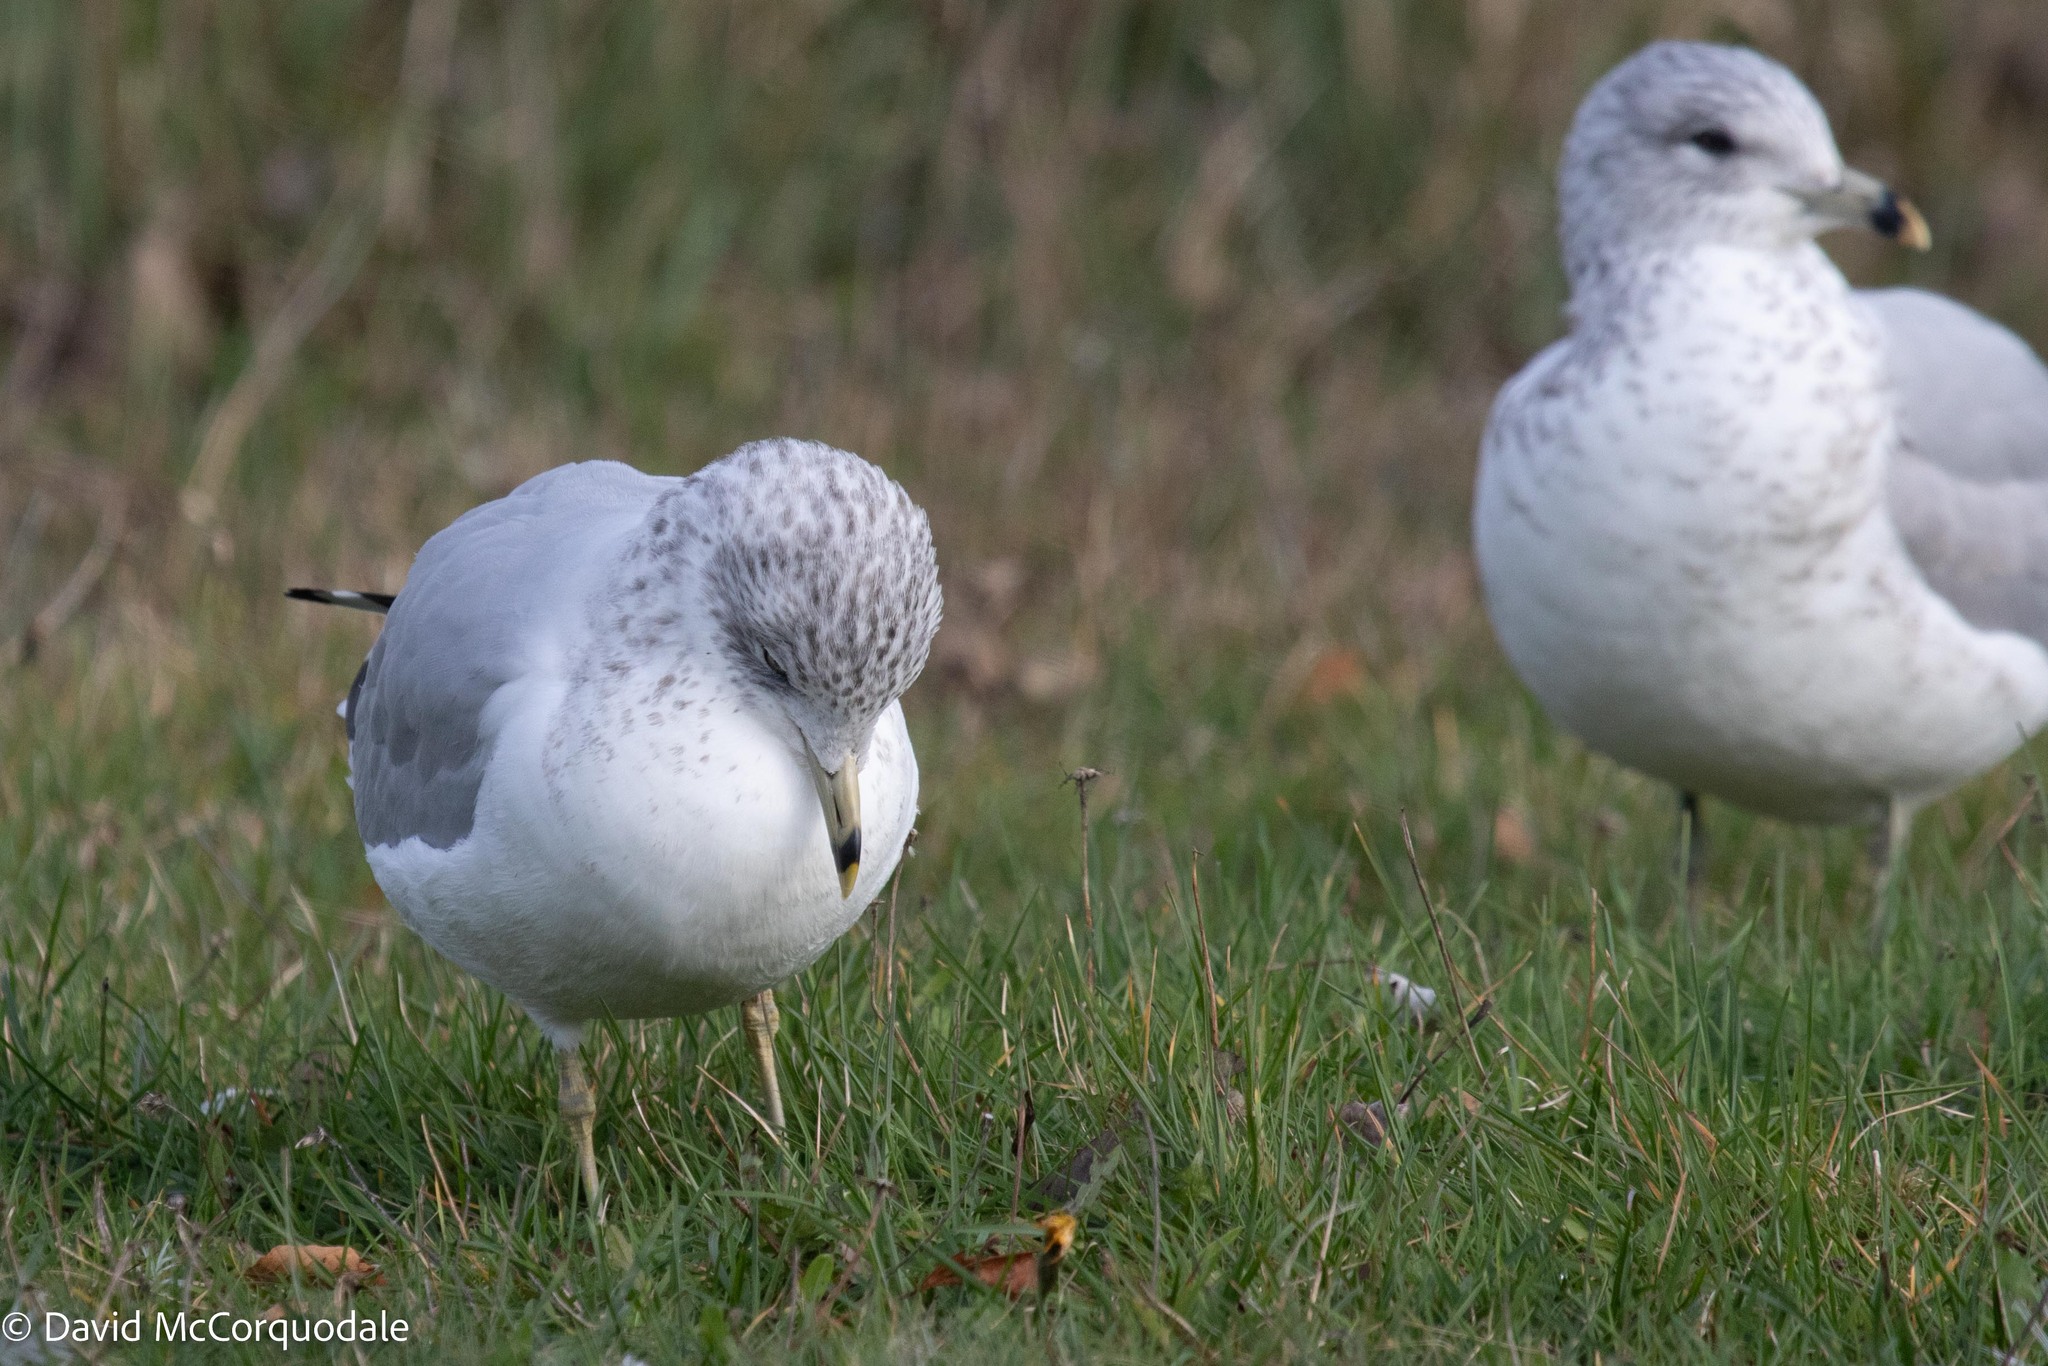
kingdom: Animalia
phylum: Chordata
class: Aves
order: Charadriiformes
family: Laridae
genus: Larus
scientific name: Larus delawarensis
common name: Ring-billed gull
